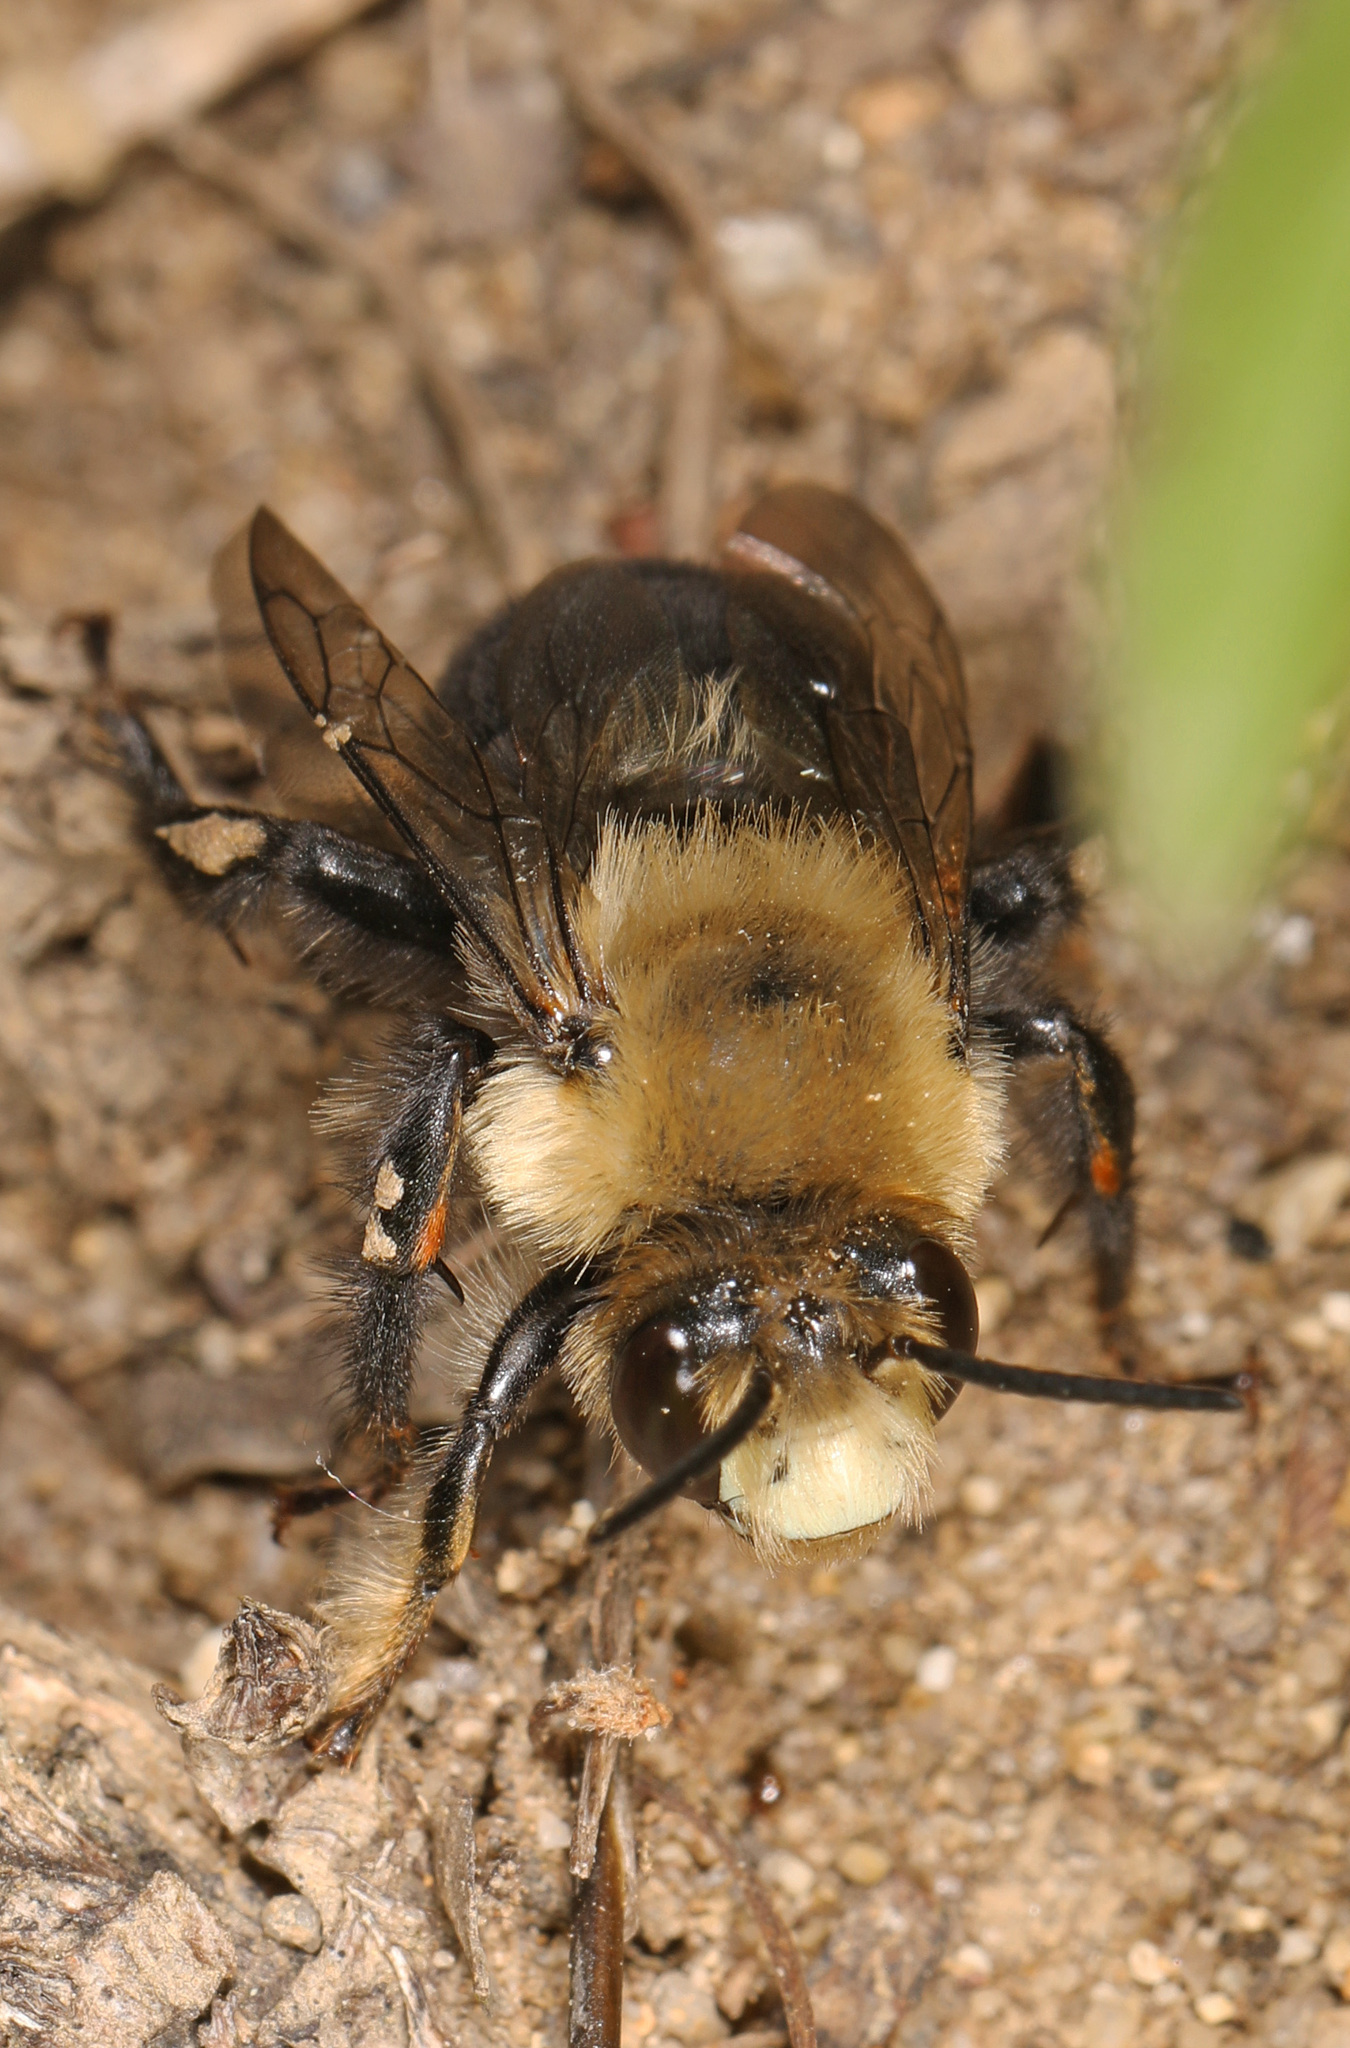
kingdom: Animalia
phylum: Arthropoda
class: Insecta
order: Hymenoptera
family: Apidae
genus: Anthophora
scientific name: Anthophora abrupta
